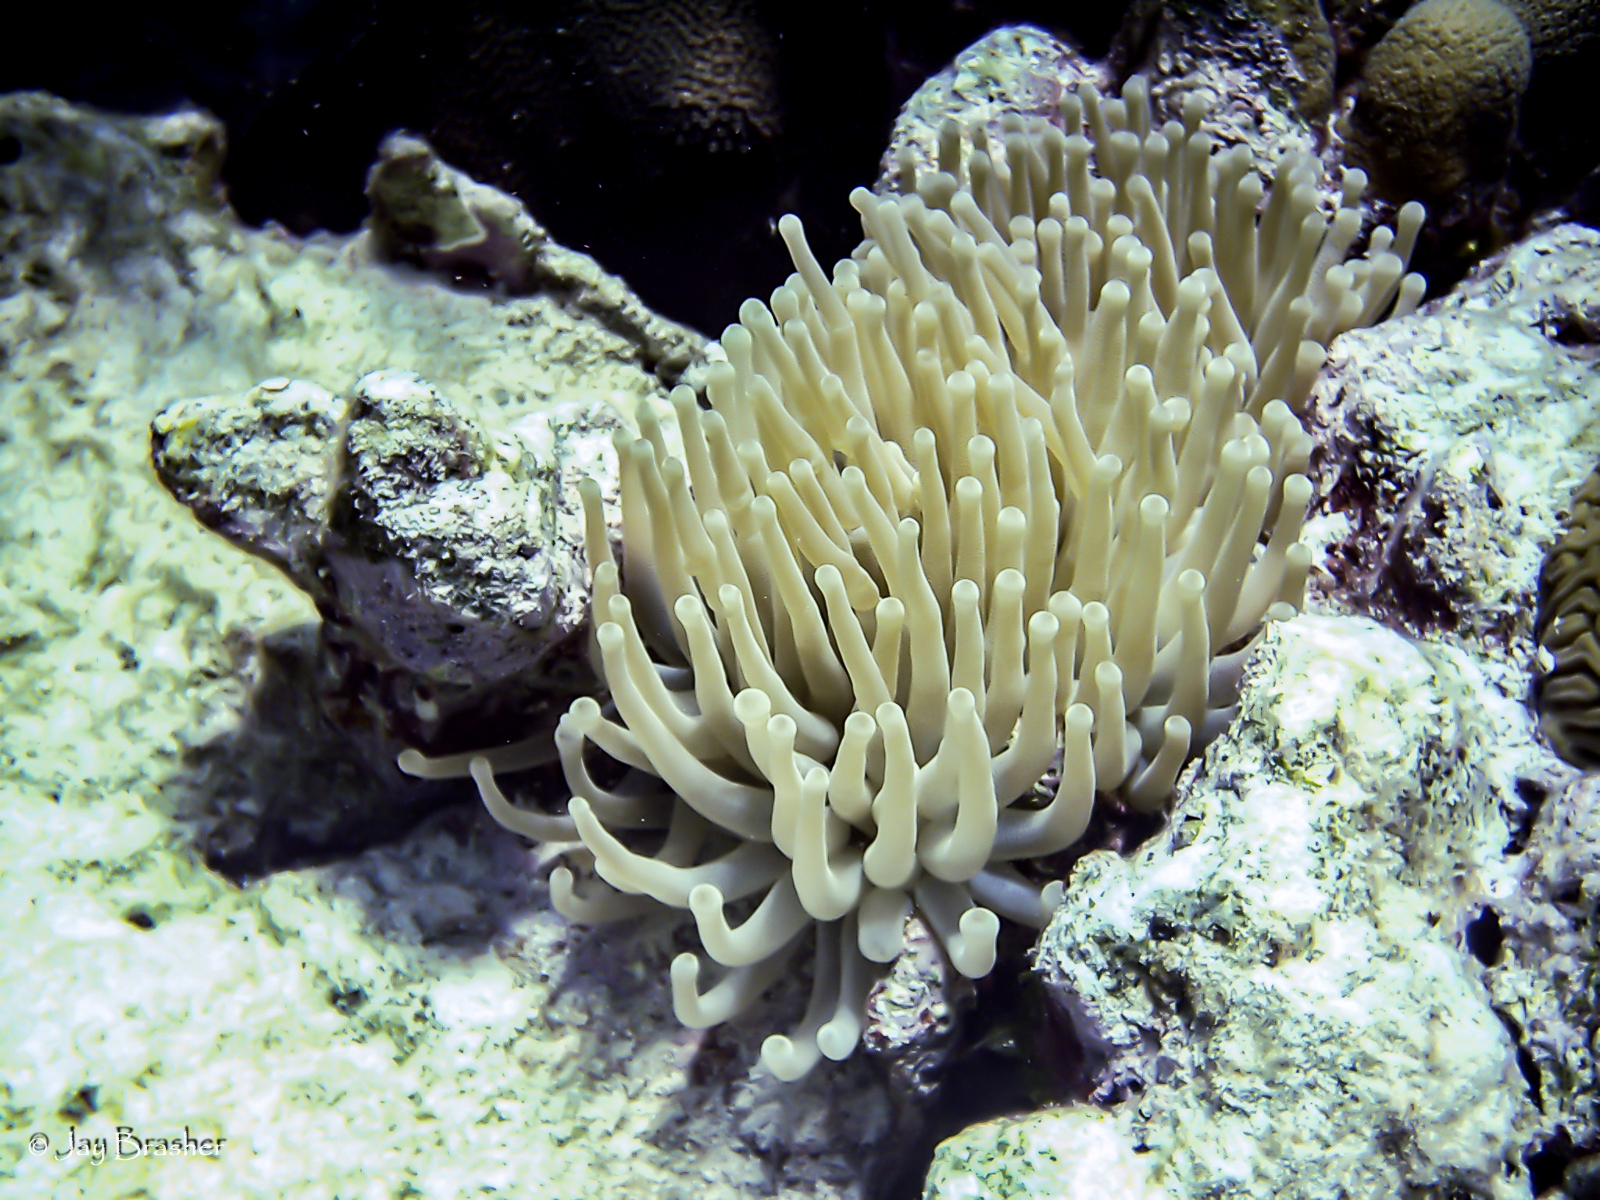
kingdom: Animalia
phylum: Cnidaria
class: Anthozoa
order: Actiniaria
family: Actiniidae
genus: Condylactis
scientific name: Condylactis gigantea
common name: Giant caribbean anemone
